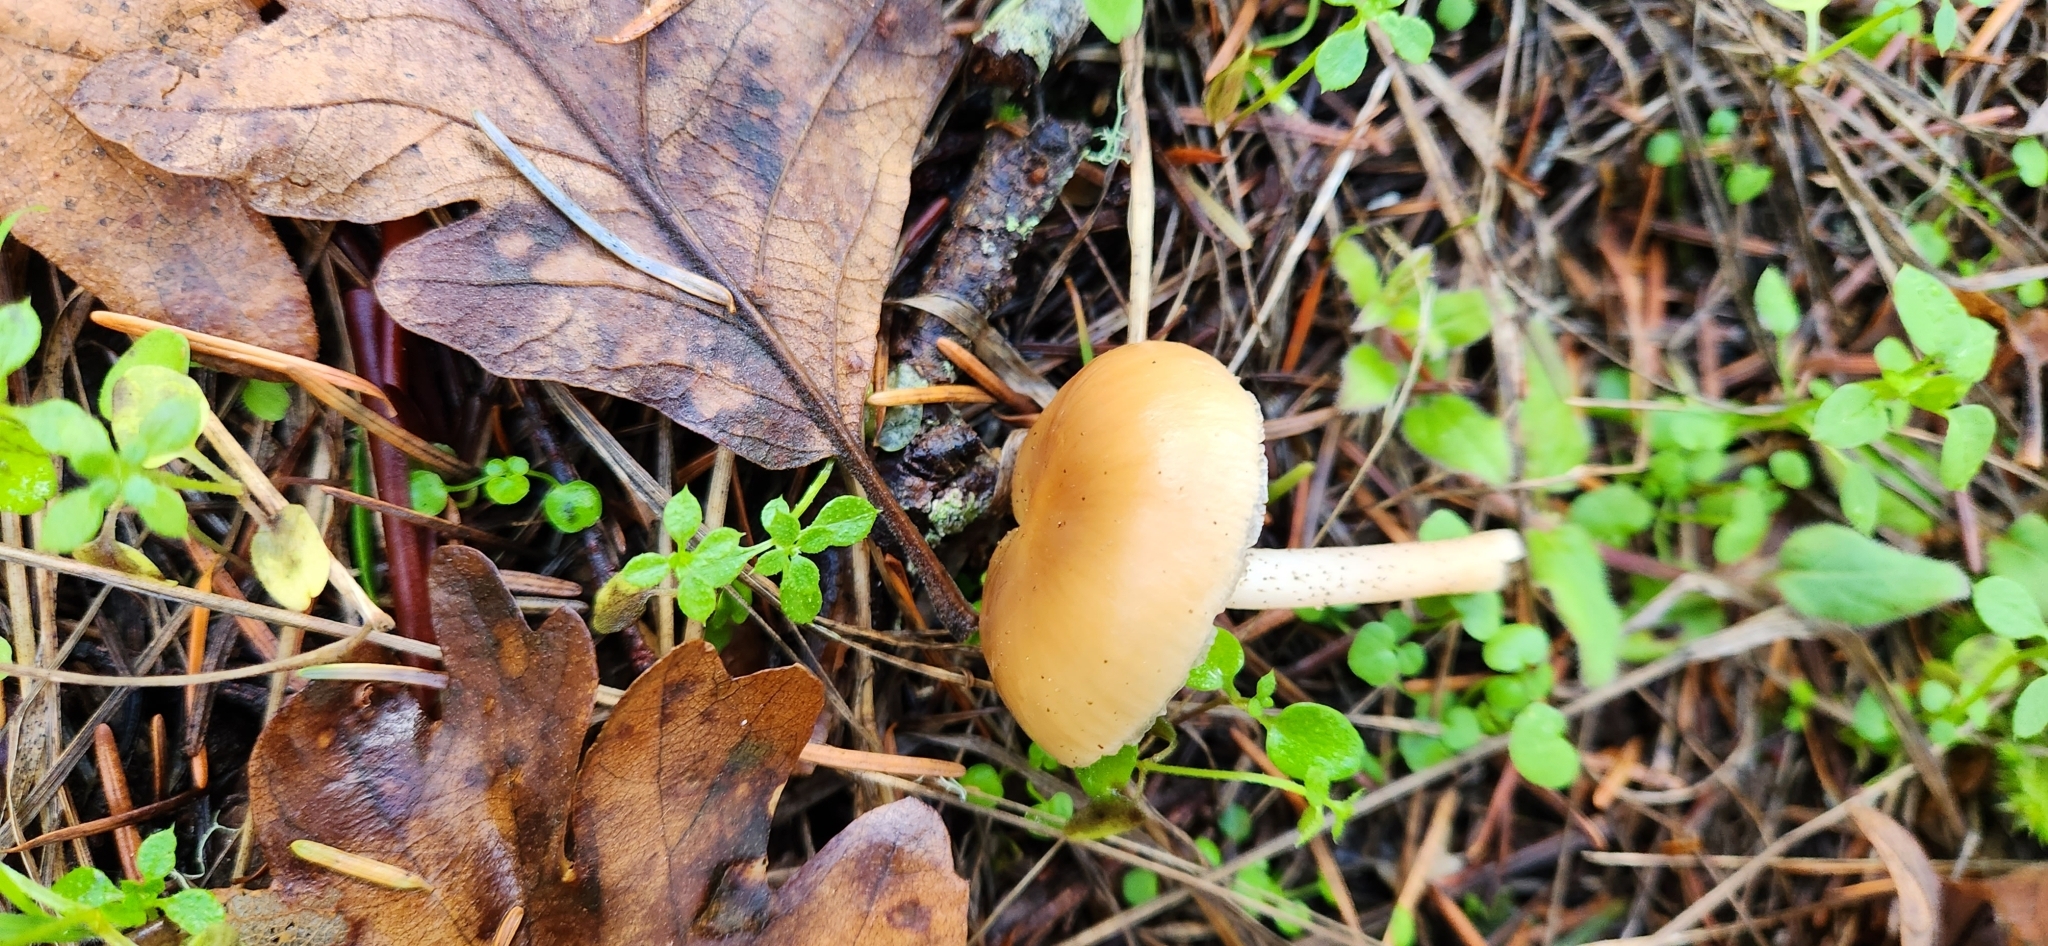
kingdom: Fungi
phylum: Basidiomycota
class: Agaricomycetes
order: Agaricales
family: Omphalotaceae
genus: Gymnopus
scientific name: Gymnopus dryophilus
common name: Penny top
